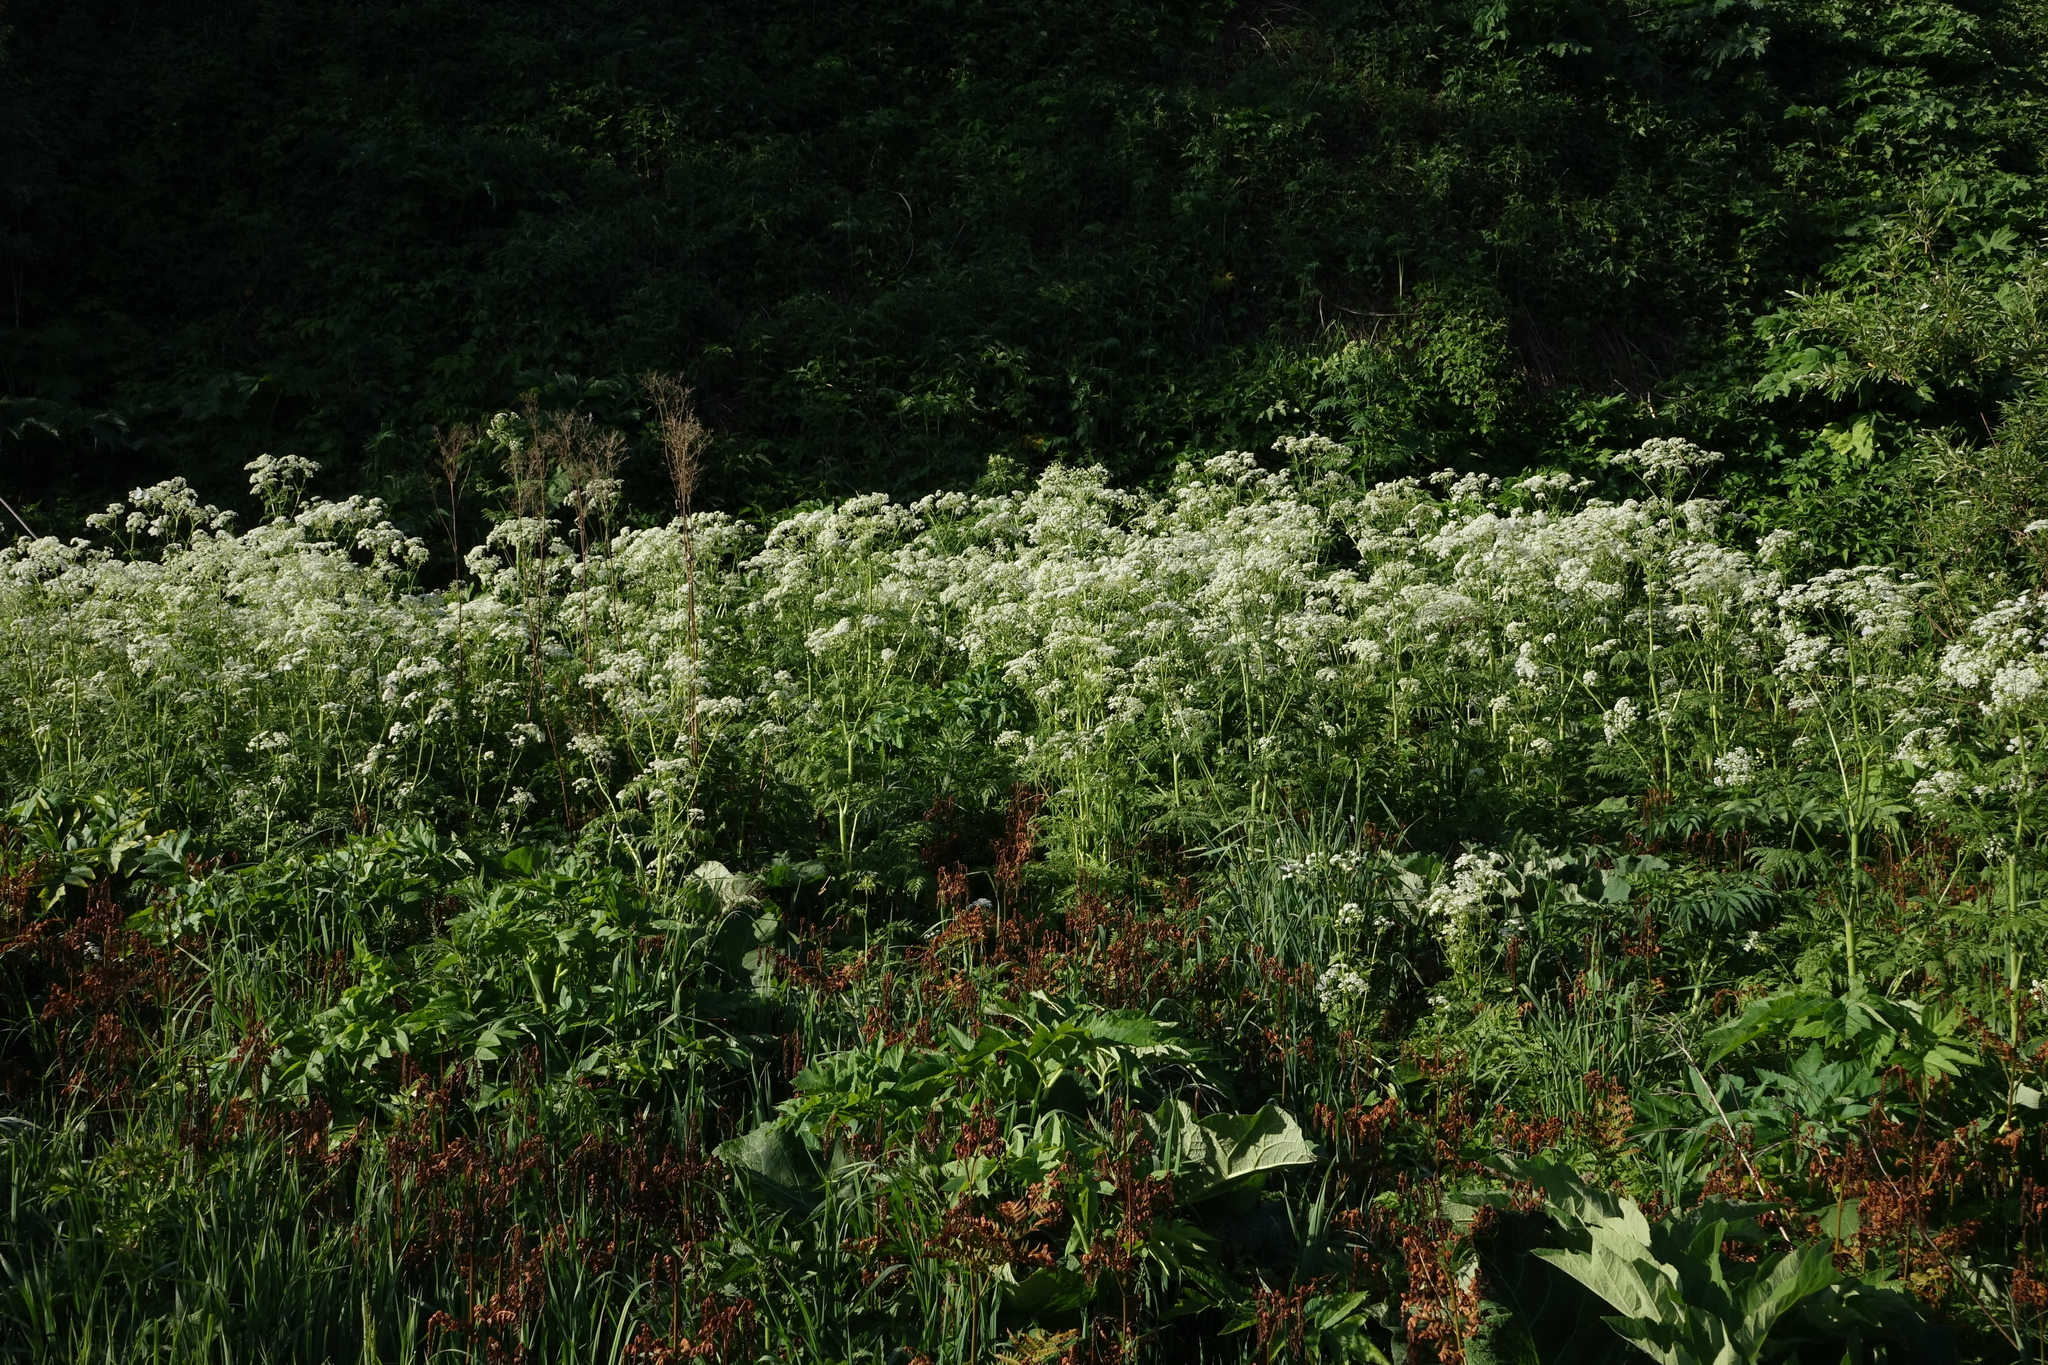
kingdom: Plantae
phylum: Tracheophyta
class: Magnoliopsida
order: Apiales
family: Apiaceae
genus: Anthriscus
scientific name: Anthriscus sylvestris
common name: Cow parsley
